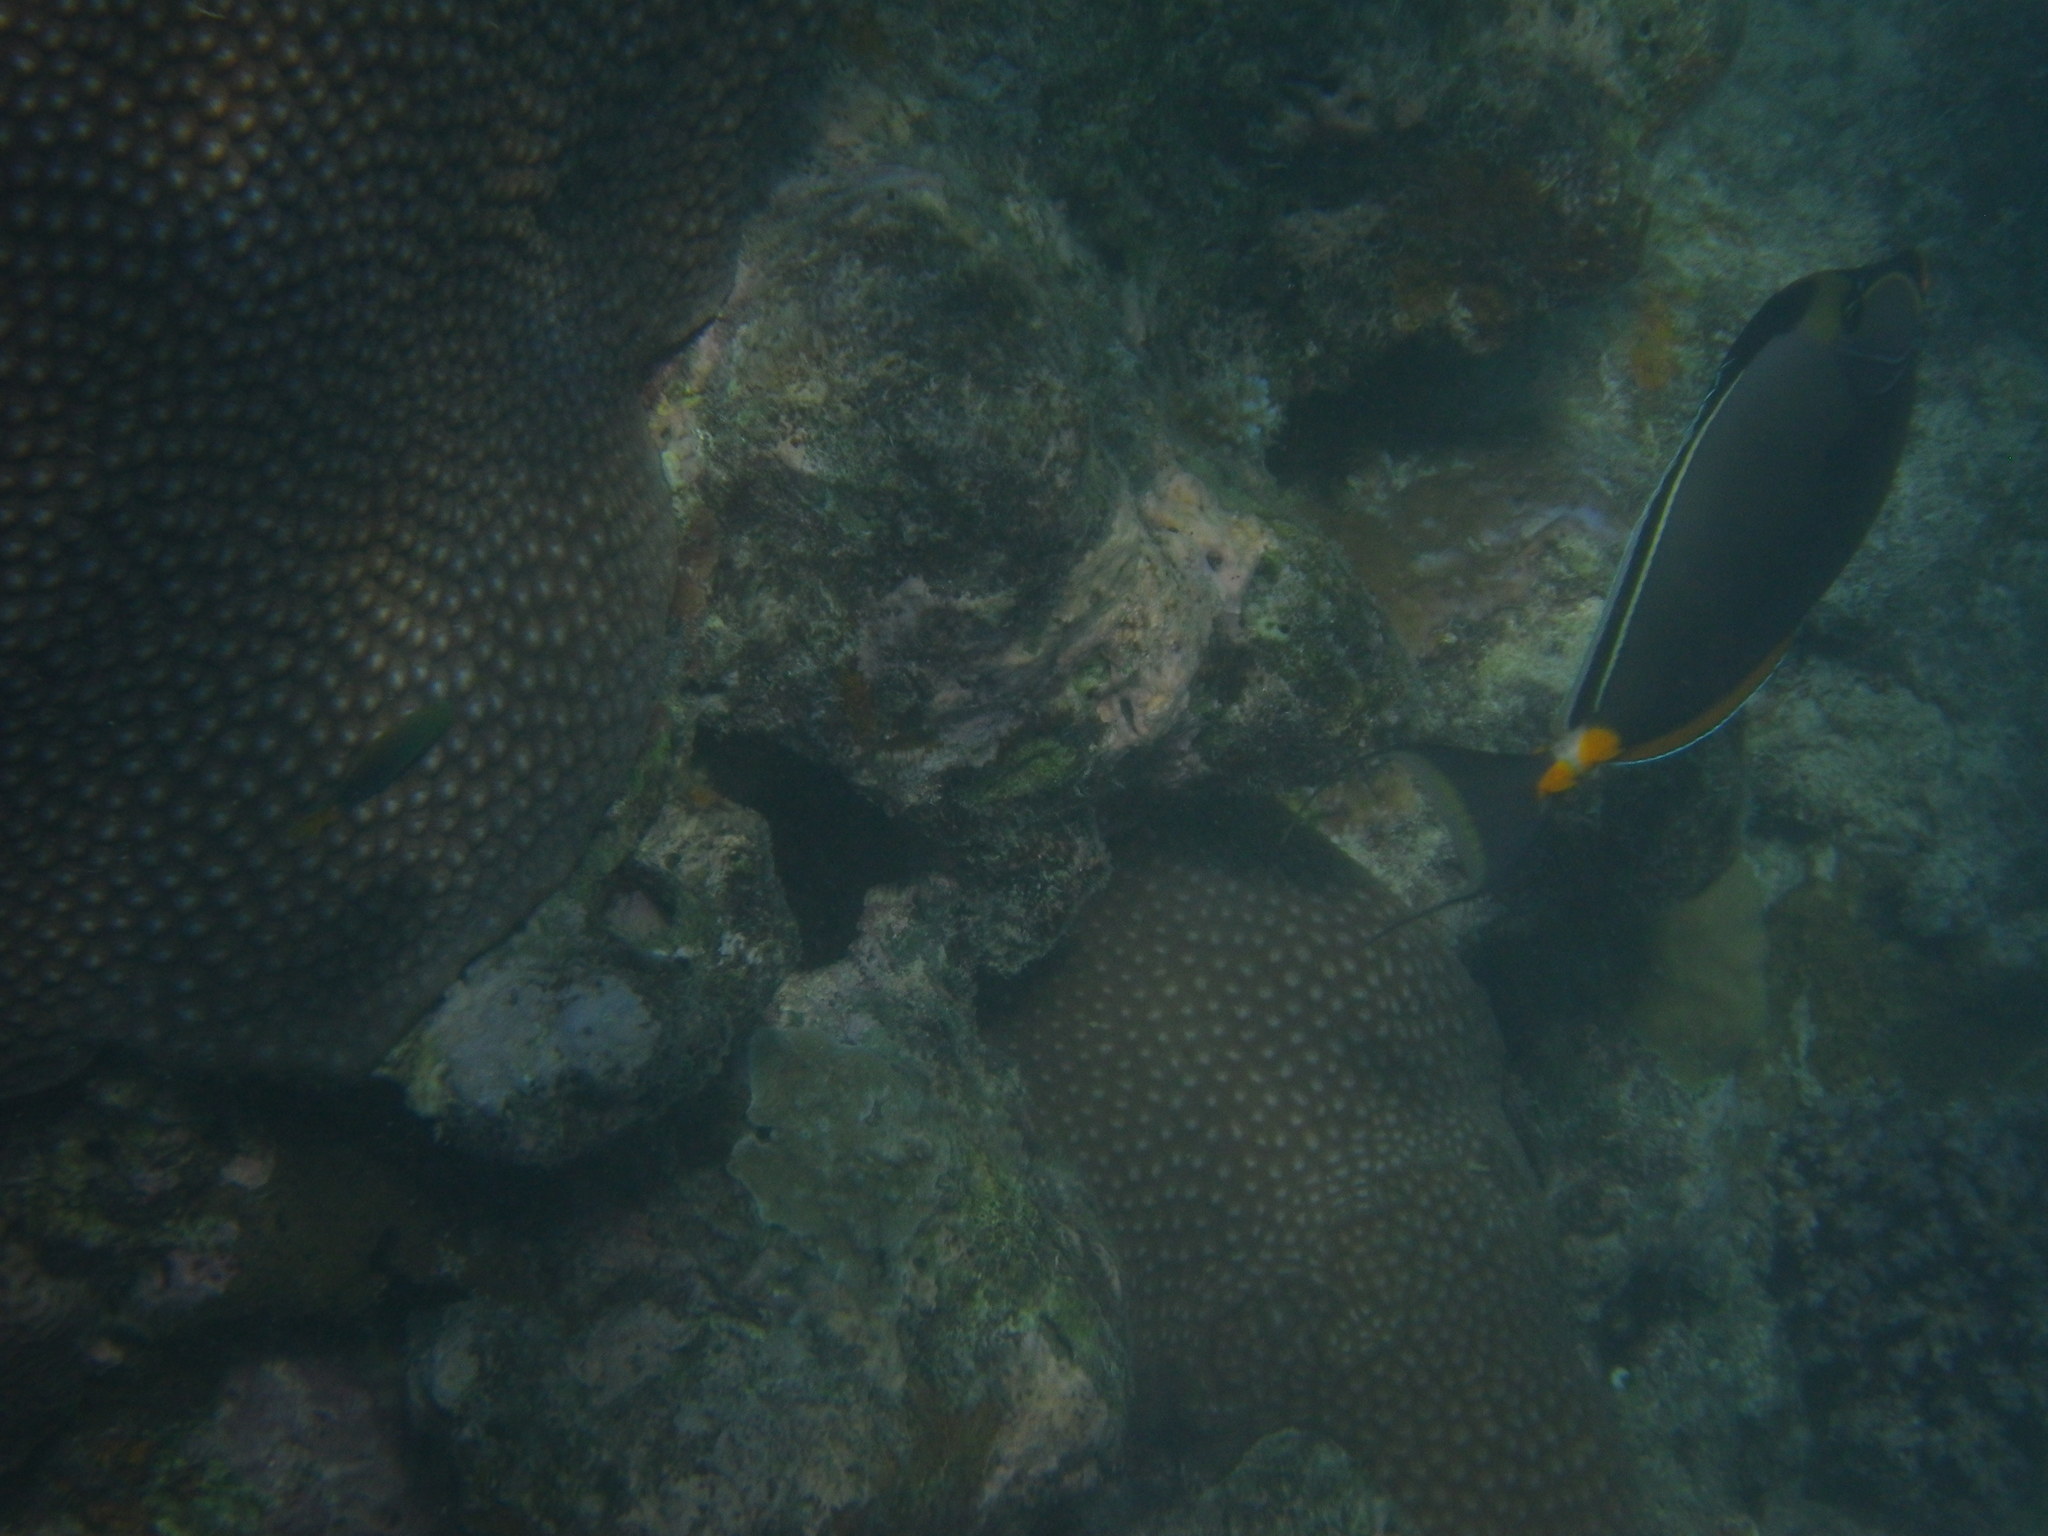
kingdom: Animalia
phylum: Chordata
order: Perciformes
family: Acanthuridae
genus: Naso
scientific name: Naso lituratus
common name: Orangespine unicornfish
